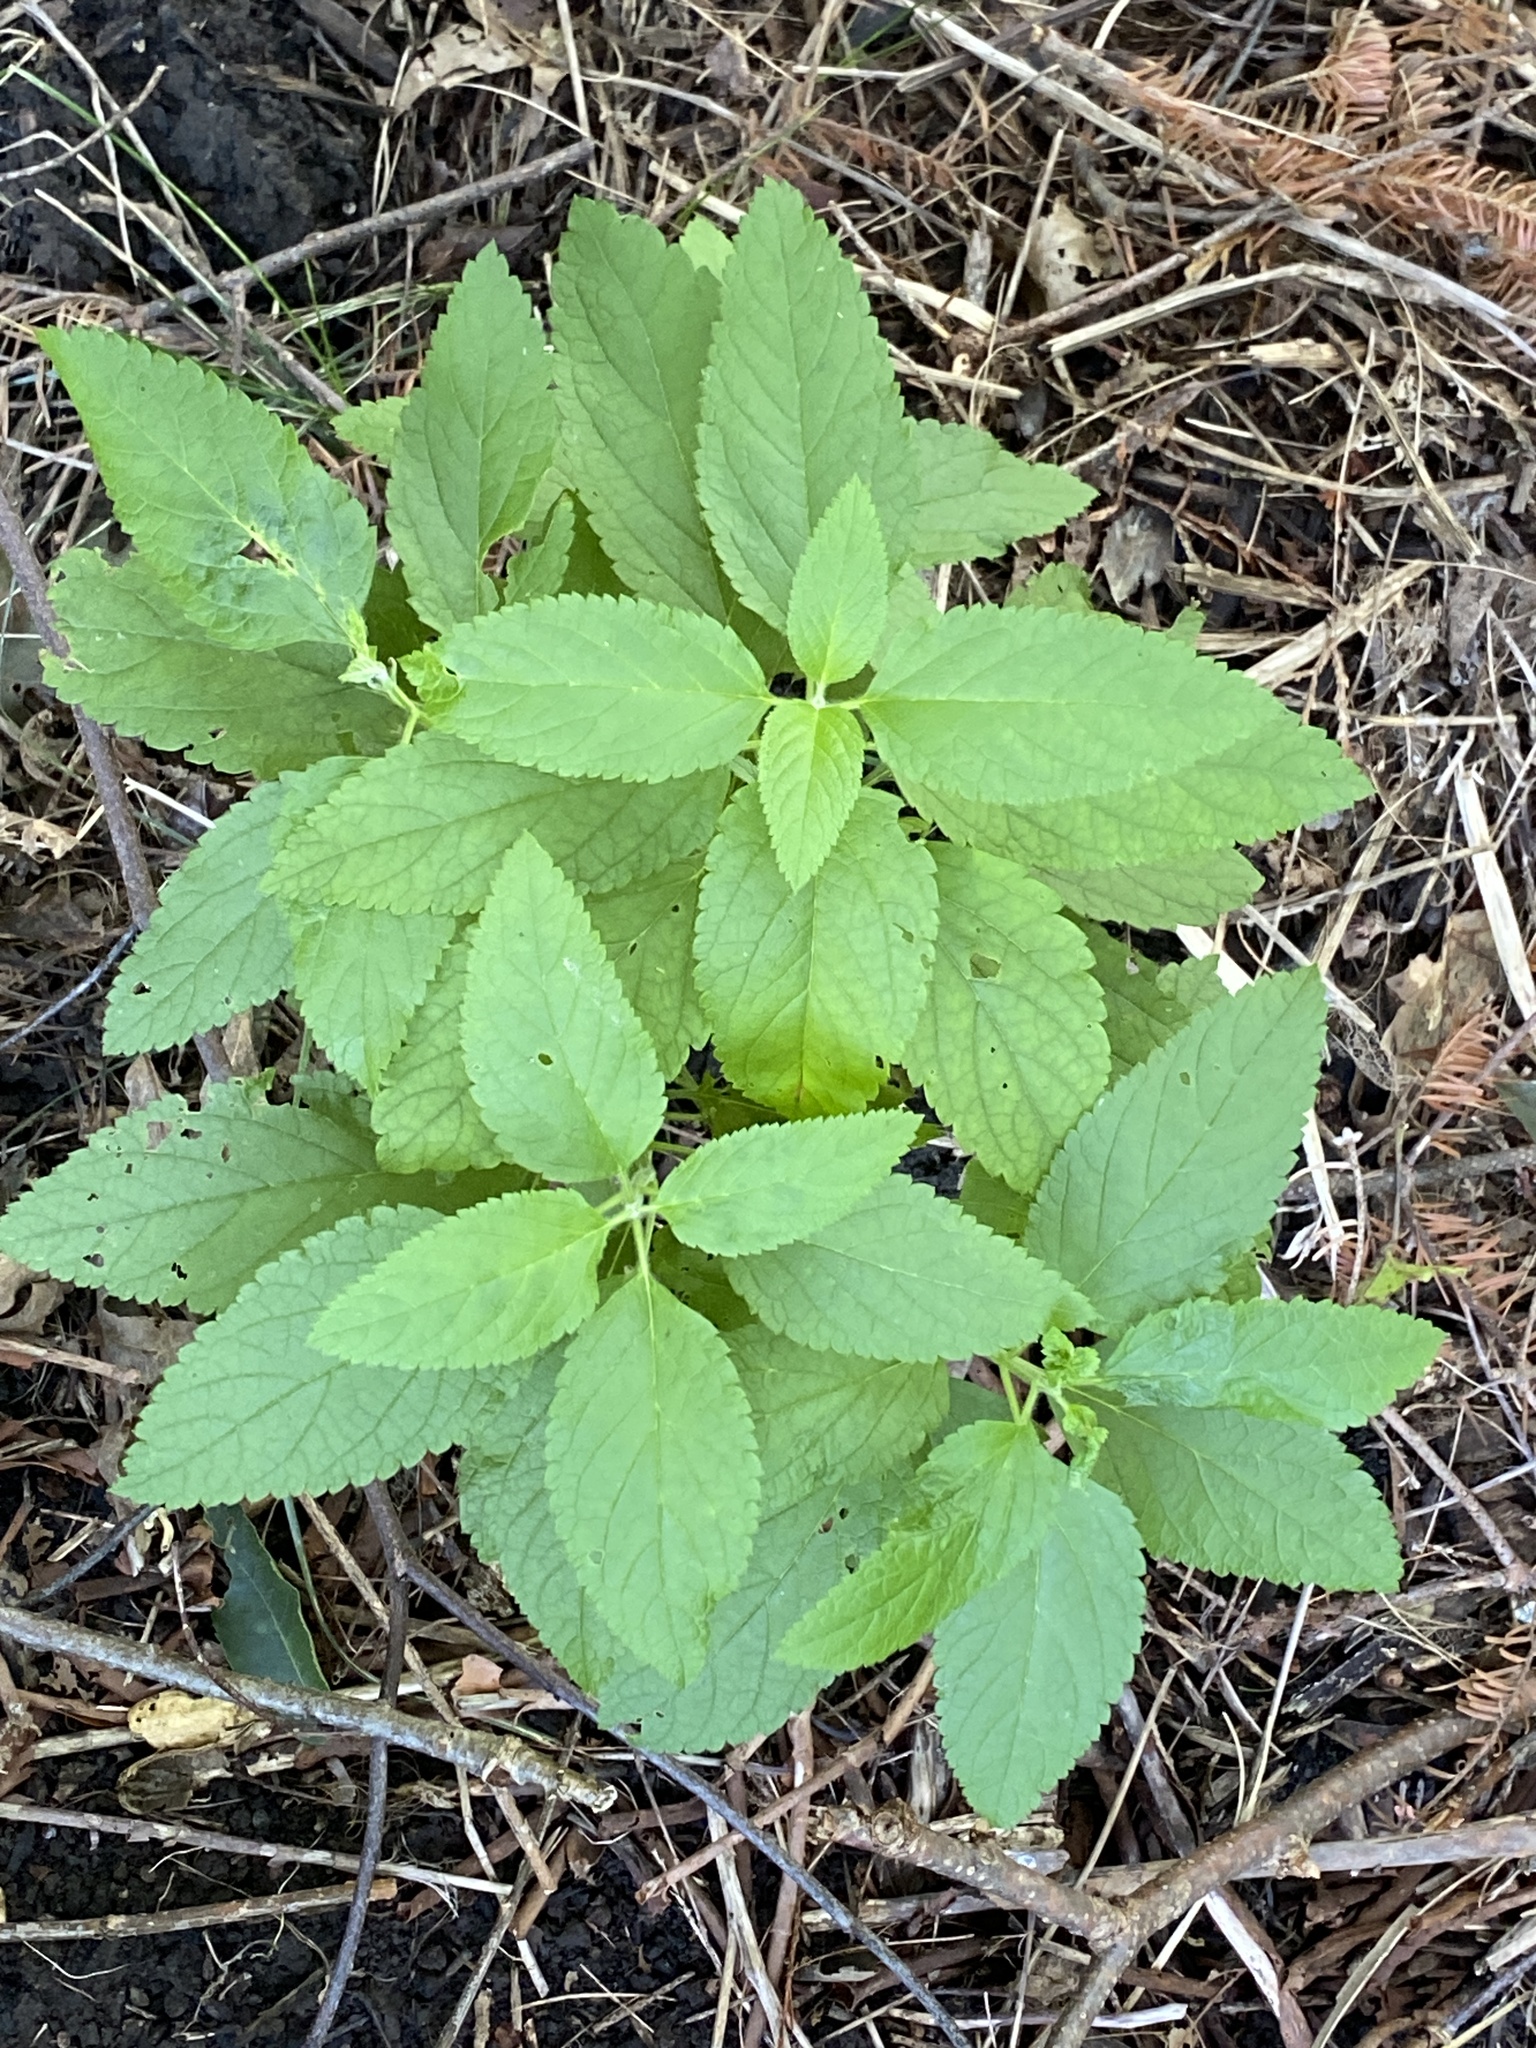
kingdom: Plantae
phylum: Tracheophyta
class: Magnoliopsida
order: Lamiales
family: Lamiaceae
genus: Teucrium
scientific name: Teucrium canadense
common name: American germander
